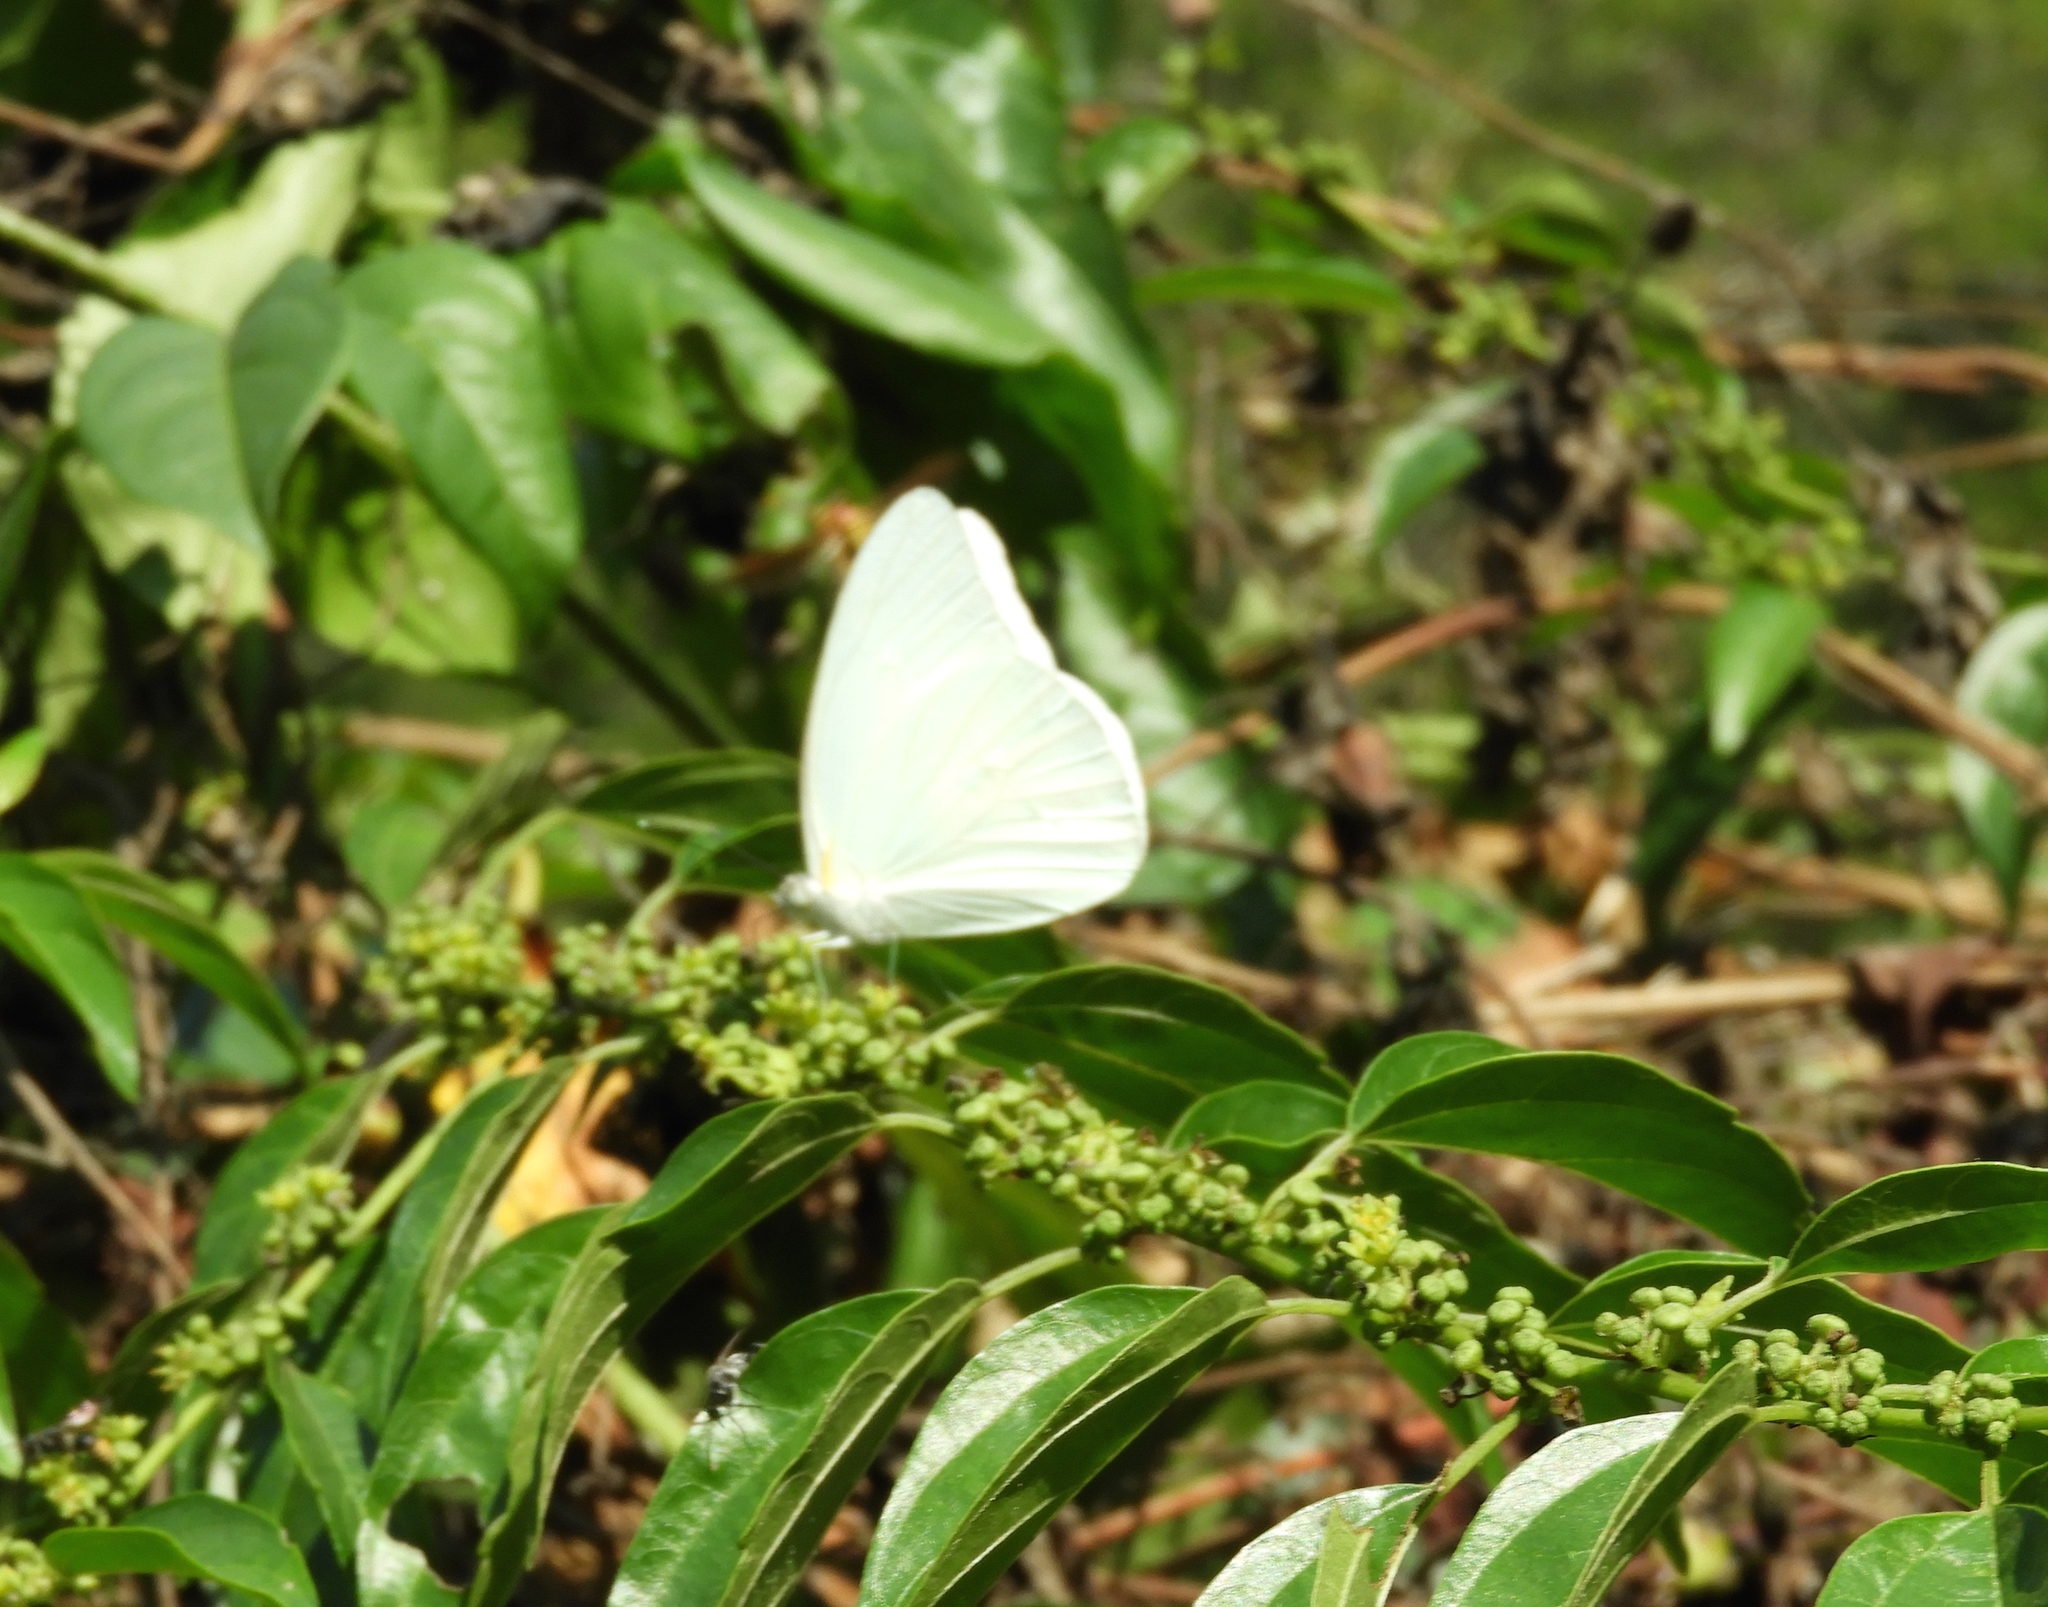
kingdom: Animalia
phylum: Arthropoda
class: Insecta
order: Lepidoptera
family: Pieridae
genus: Glutophrissa
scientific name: Glutophrissa drusilla
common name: Florida white
